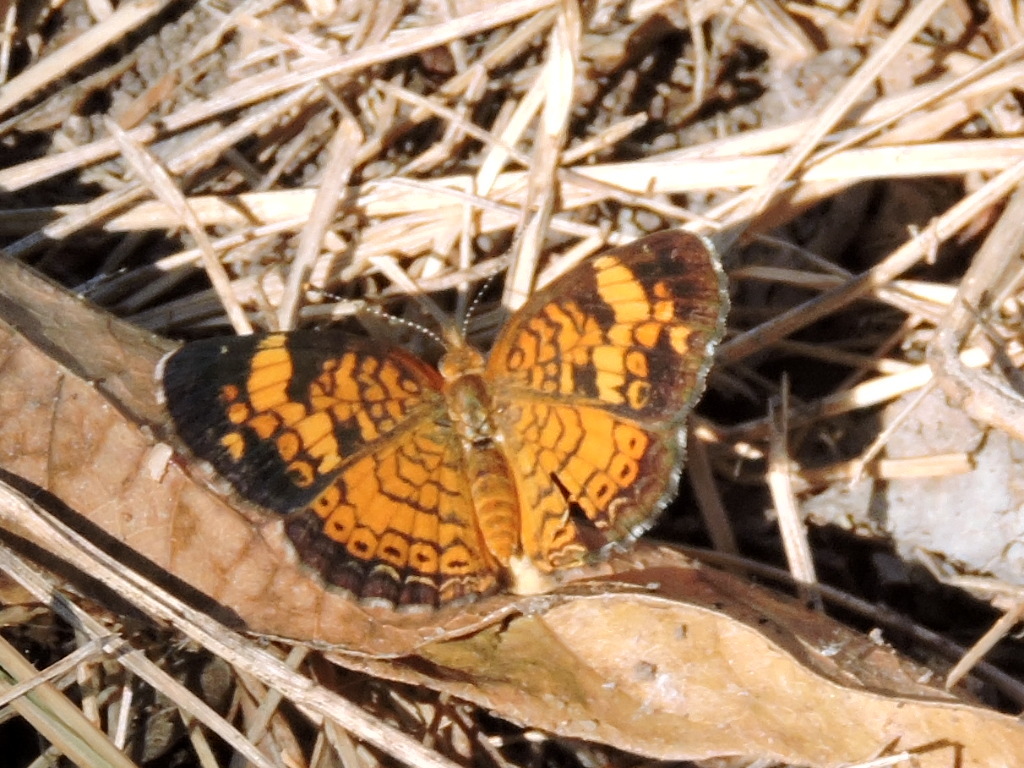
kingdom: Animalia
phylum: Arthropoda
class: Insecta
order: Lepidoptera
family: Nymphalidae
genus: Phyciodes
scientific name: Phyciodes tharos
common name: Pearl crescent
